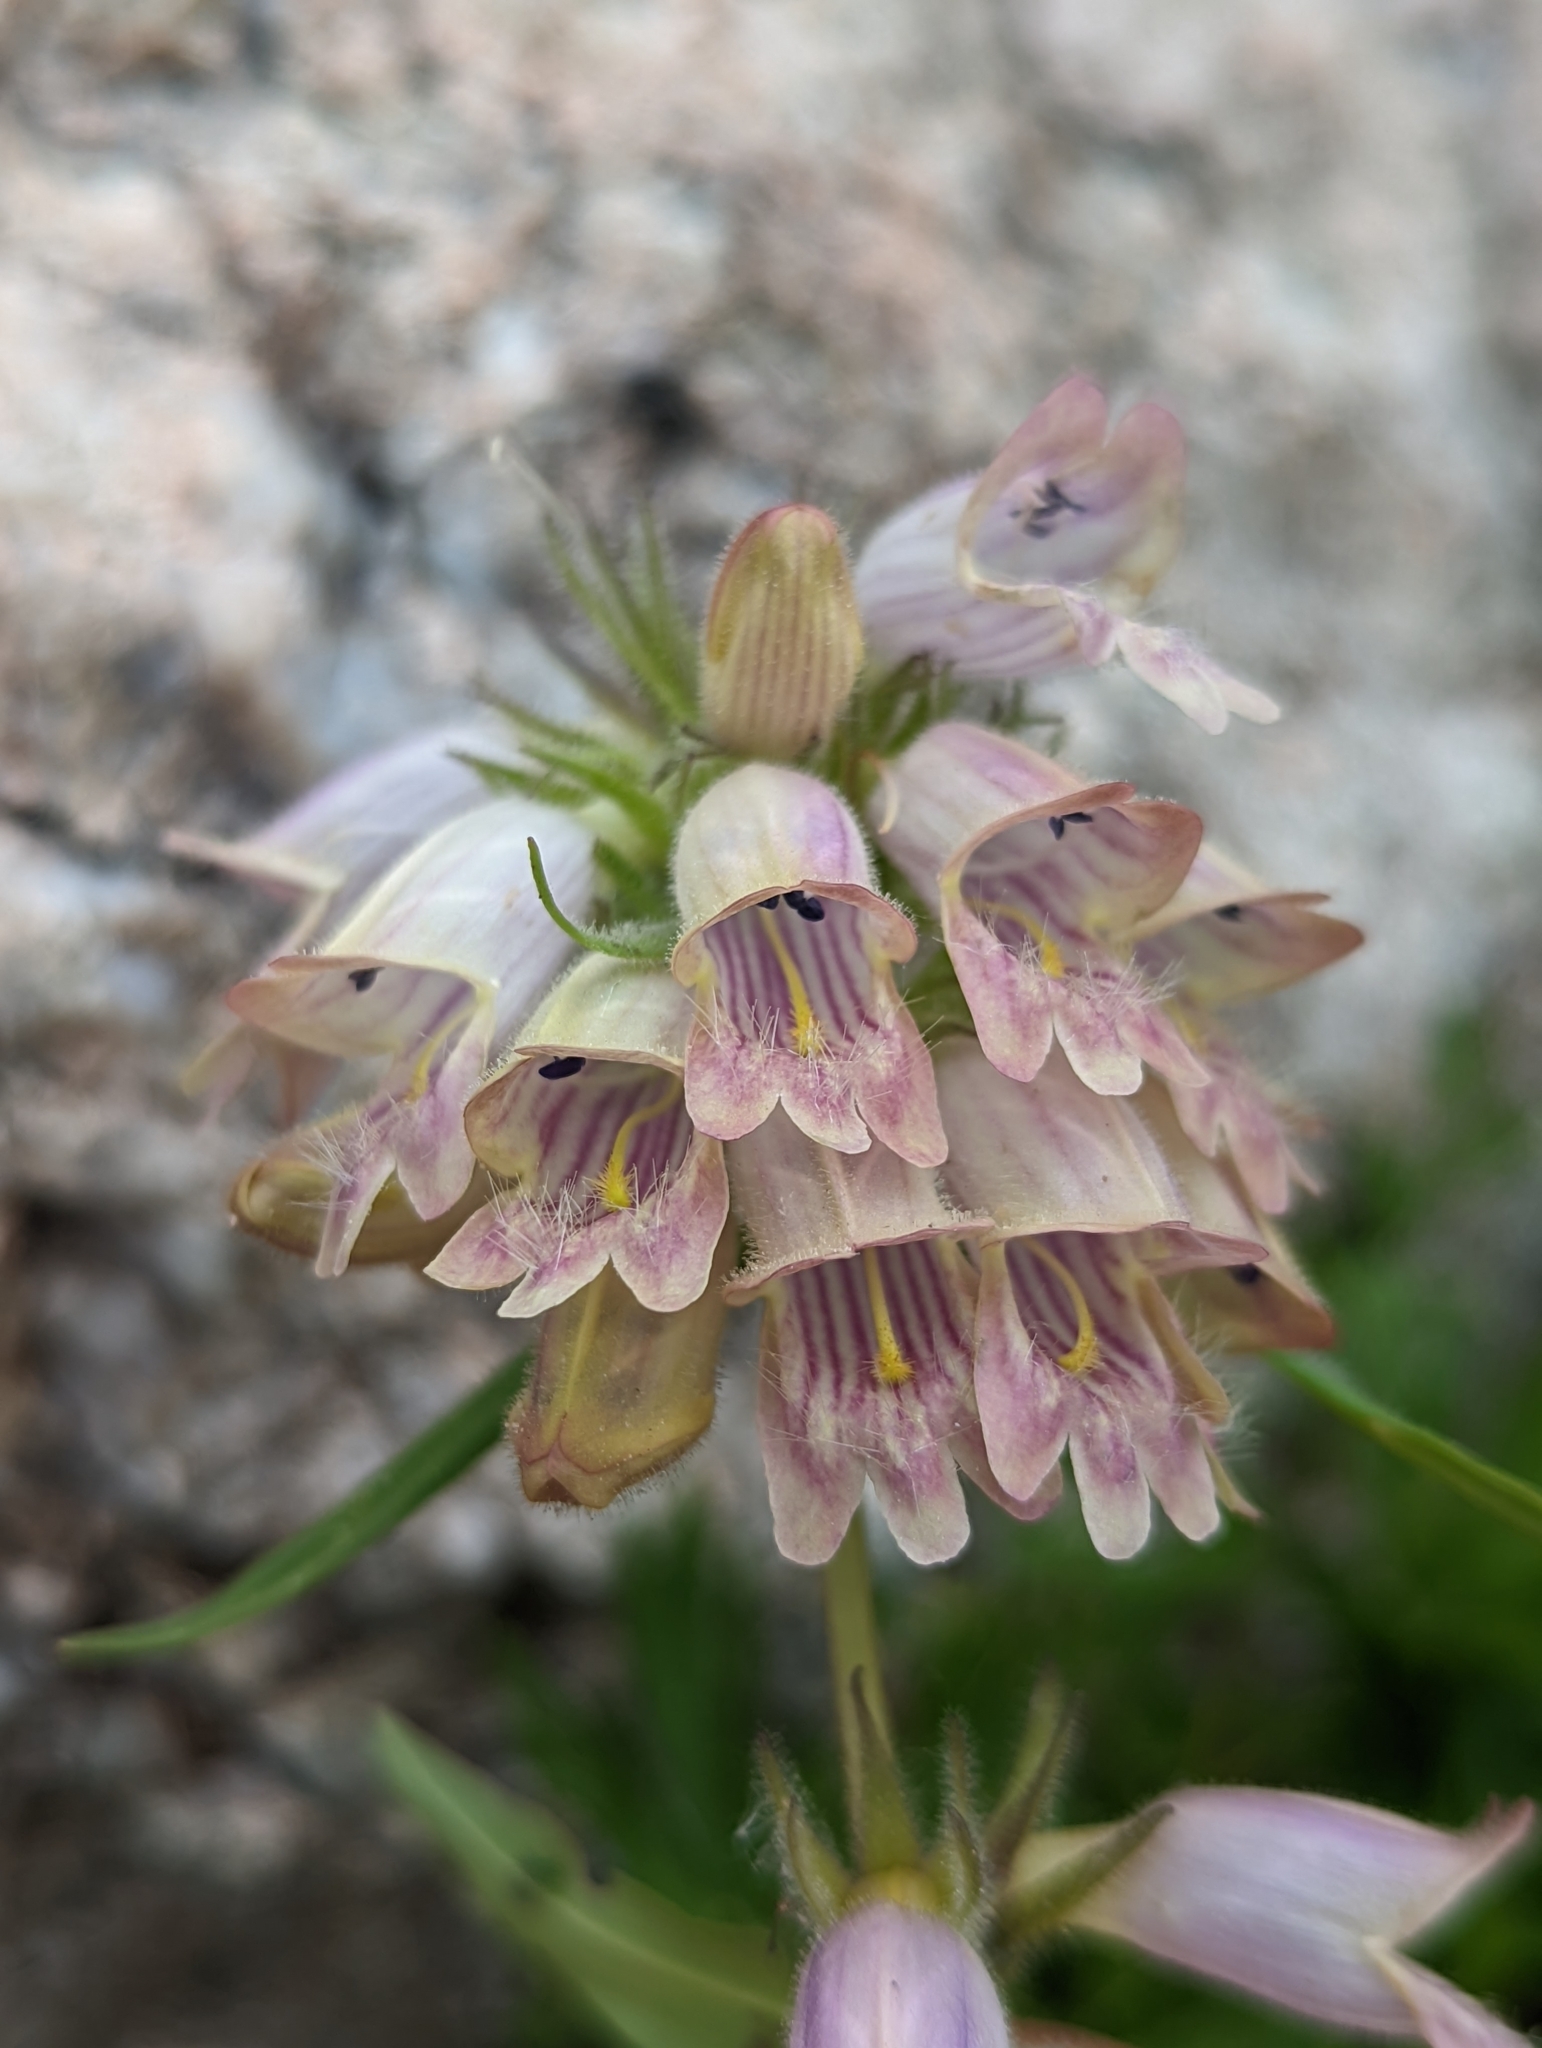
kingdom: Plantae
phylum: Tracheophyta
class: Magnoliopsida
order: Lamiales
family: Plantaginaceae
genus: Penstemon
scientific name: Penstemon whippleanus
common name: Whipple's penstemon
